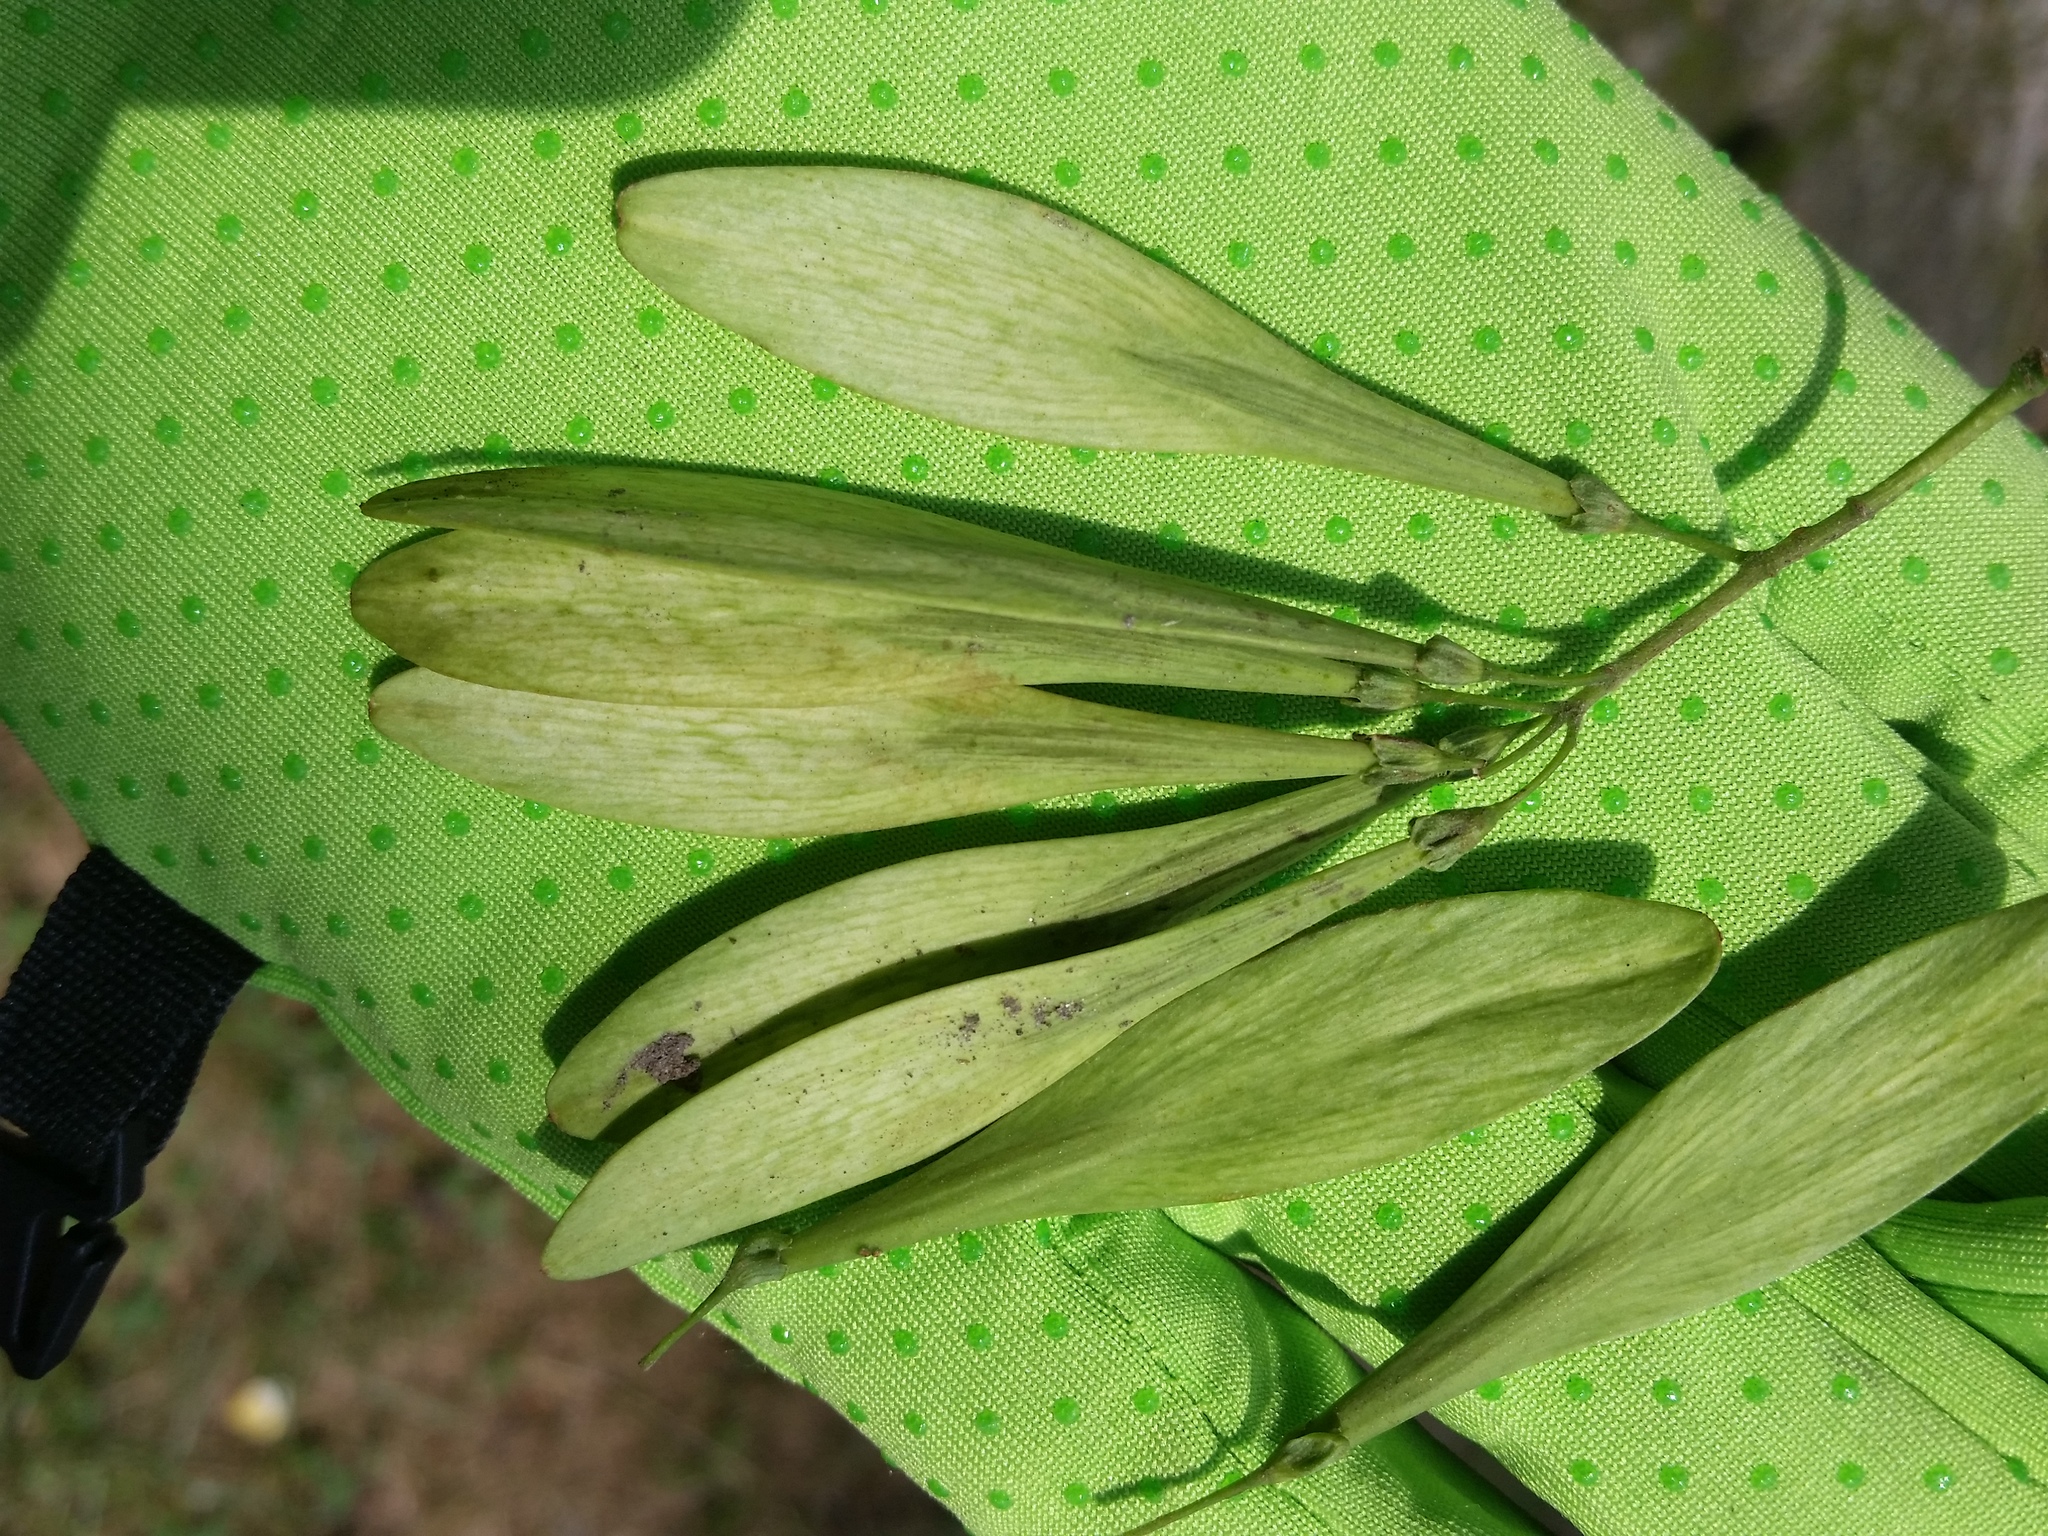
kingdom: Plantae
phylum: Tracheophyta
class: Magnoliopsida
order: Lamiales
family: Oleaceae
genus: Fraxinus
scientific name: Fraxinus profunda
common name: Pumpkin ash
